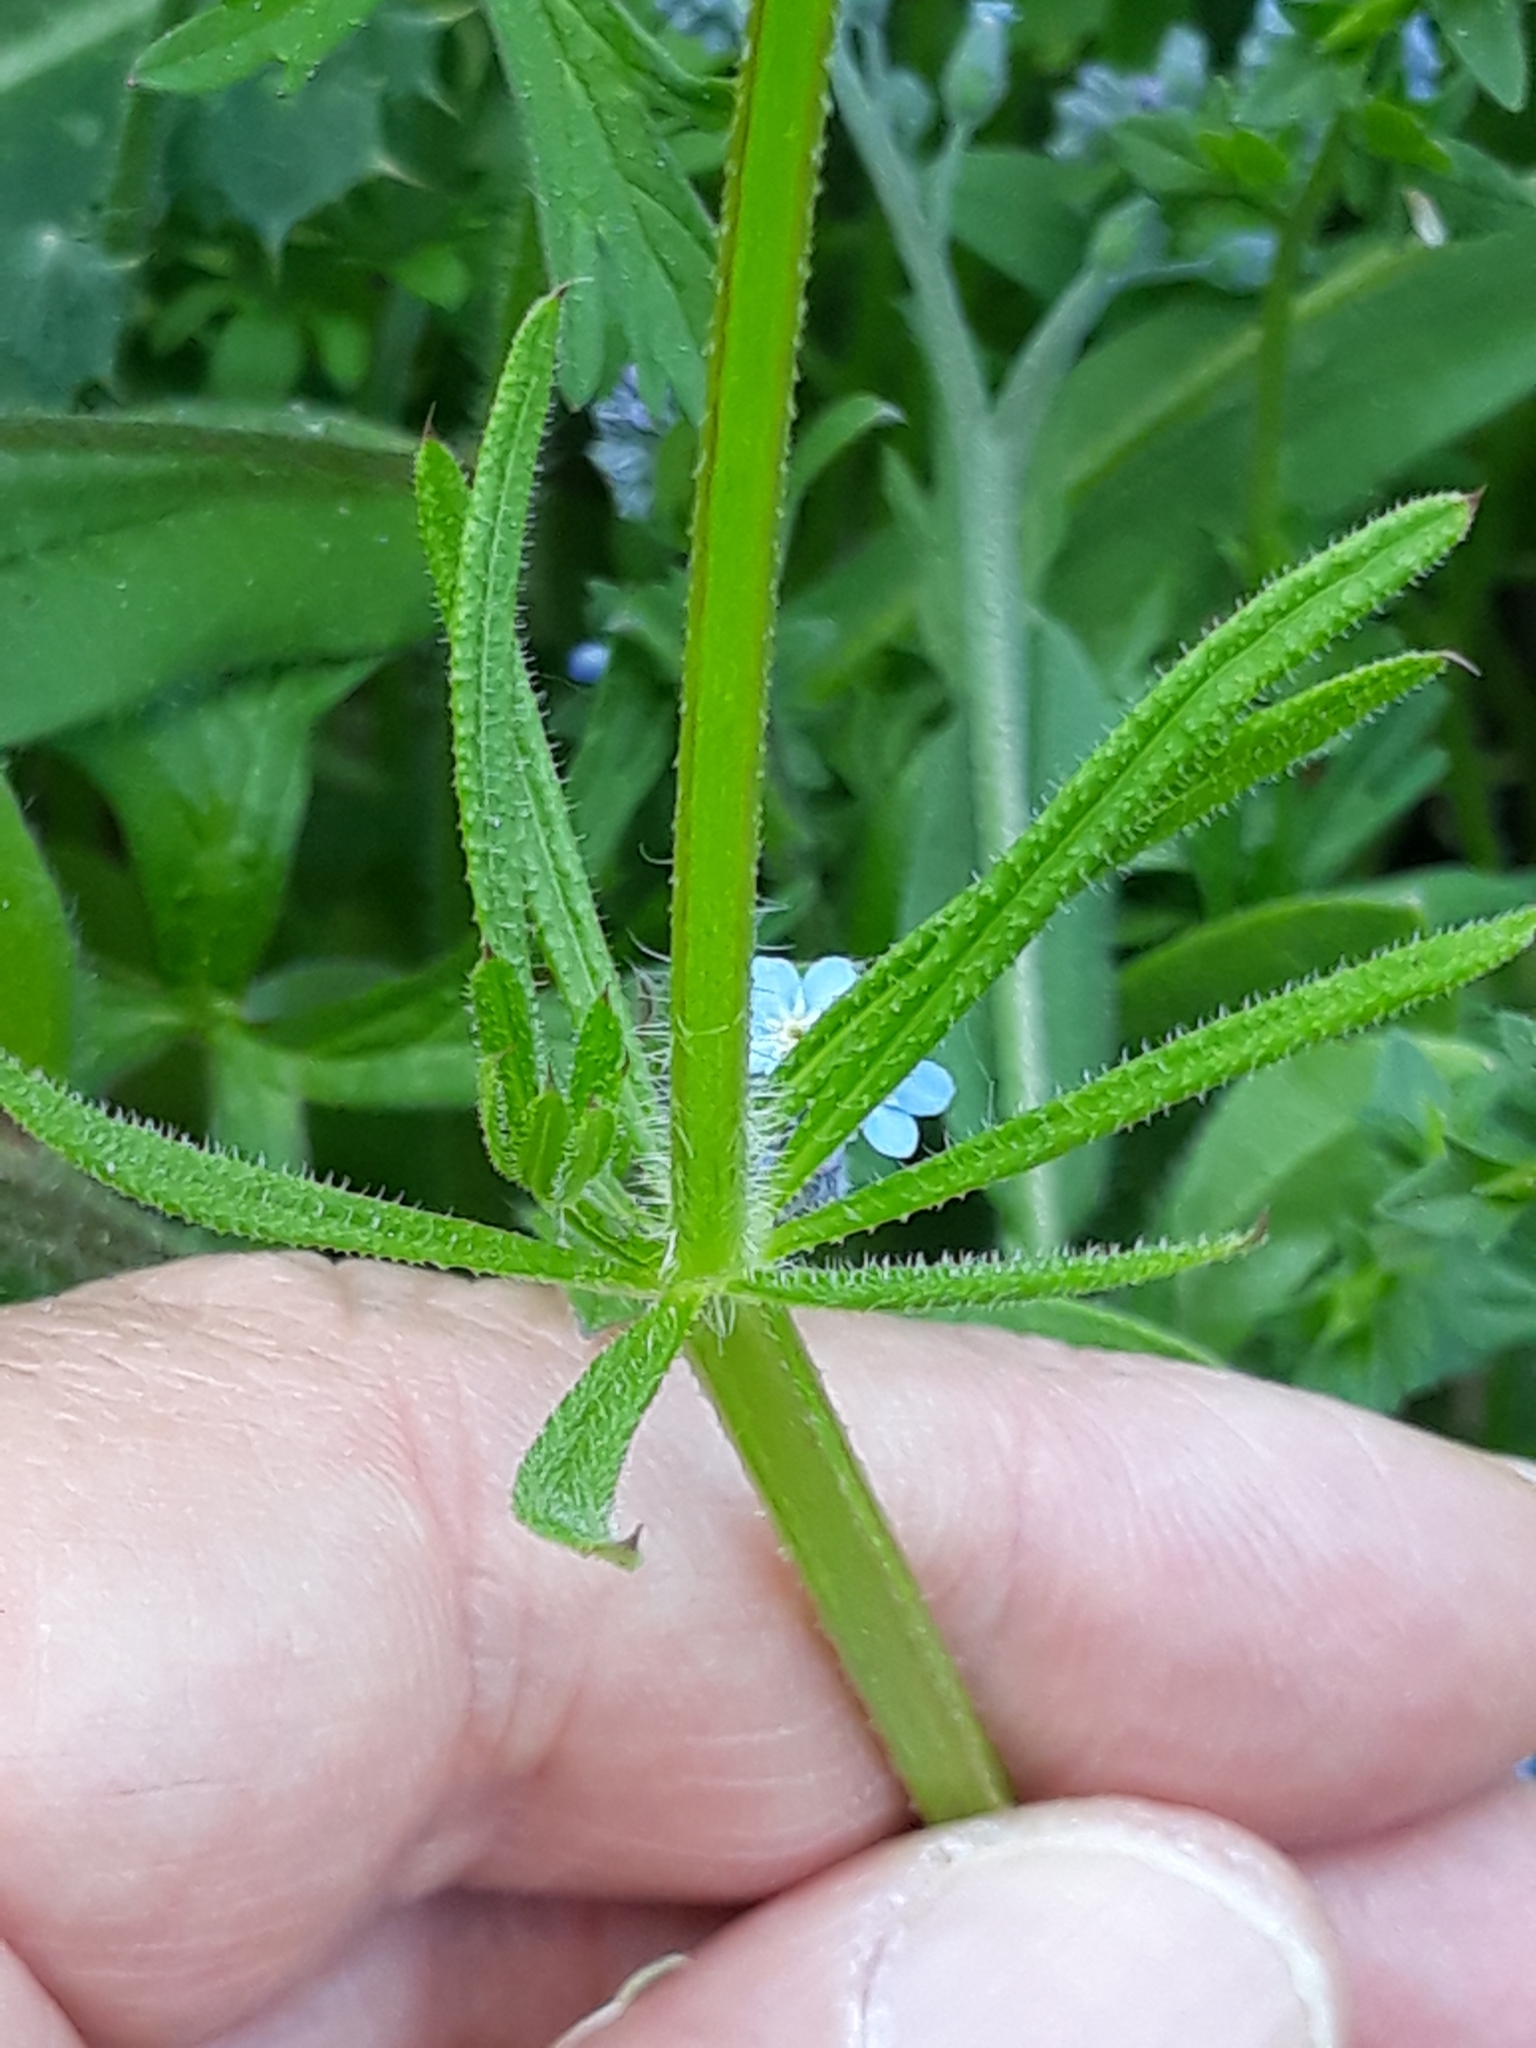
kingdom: Plantae
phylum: Tracheophyta
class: Magnoliopsida
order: Gentianales
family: Rubiaceae
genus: Galium
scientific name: Galium aparine
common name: Cleavers
